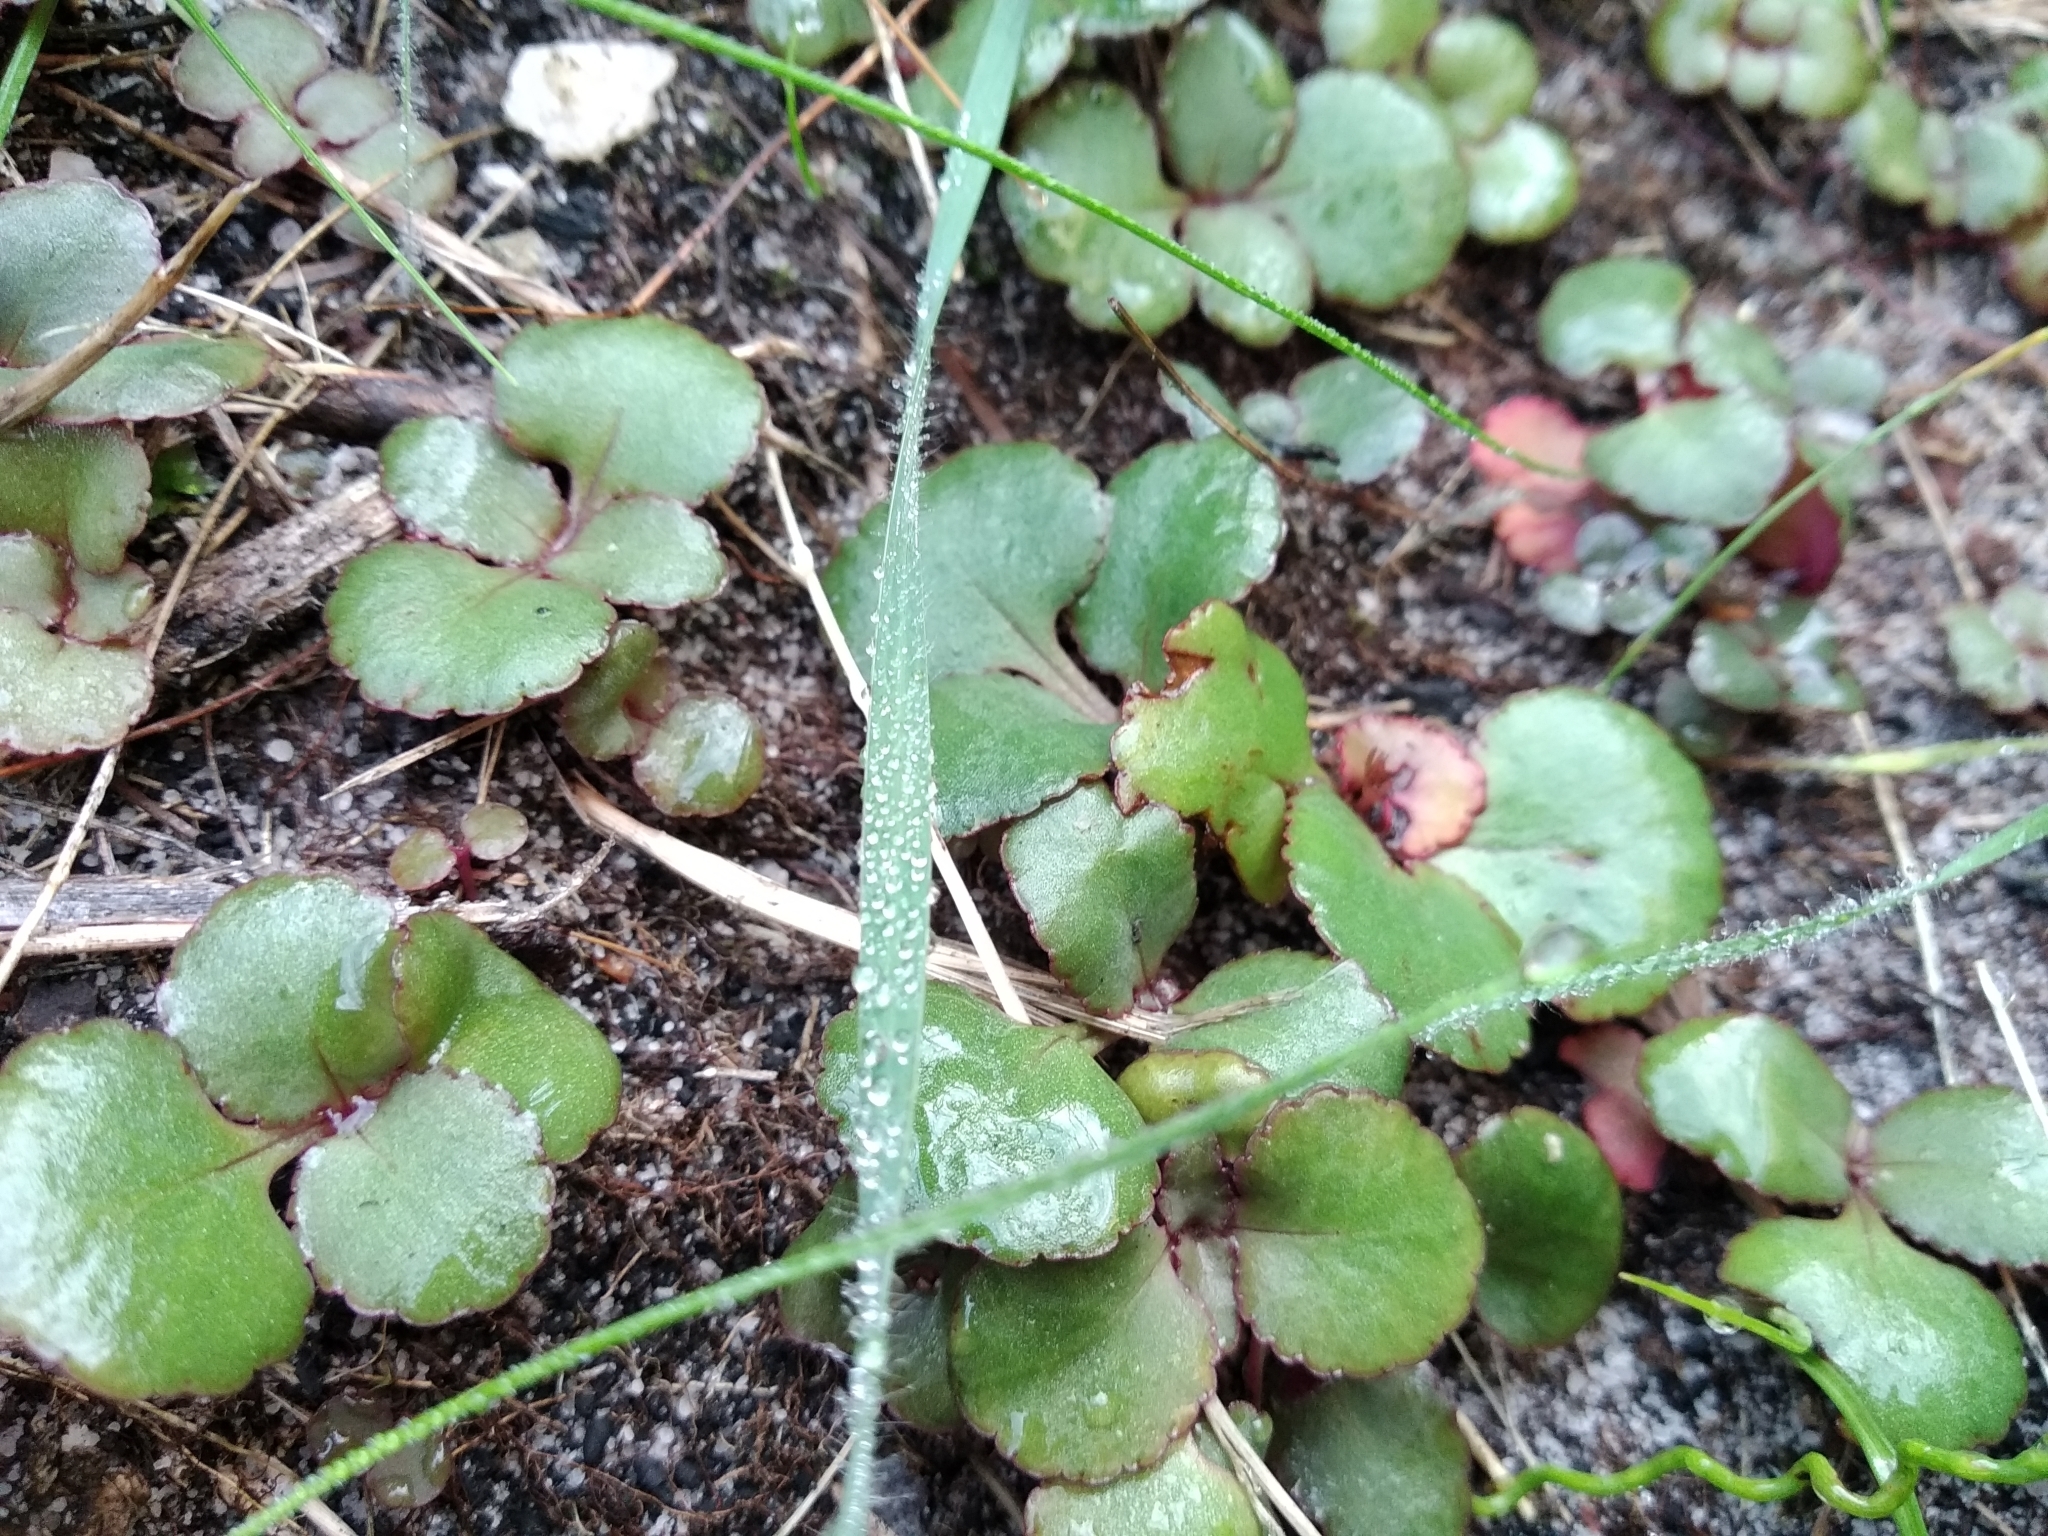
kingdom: Plantae
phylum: Tracheophyta
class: Magnoliopsida
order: Saxifragales
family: Crassulaceae
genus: Crassula
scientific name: Crassula capensis
